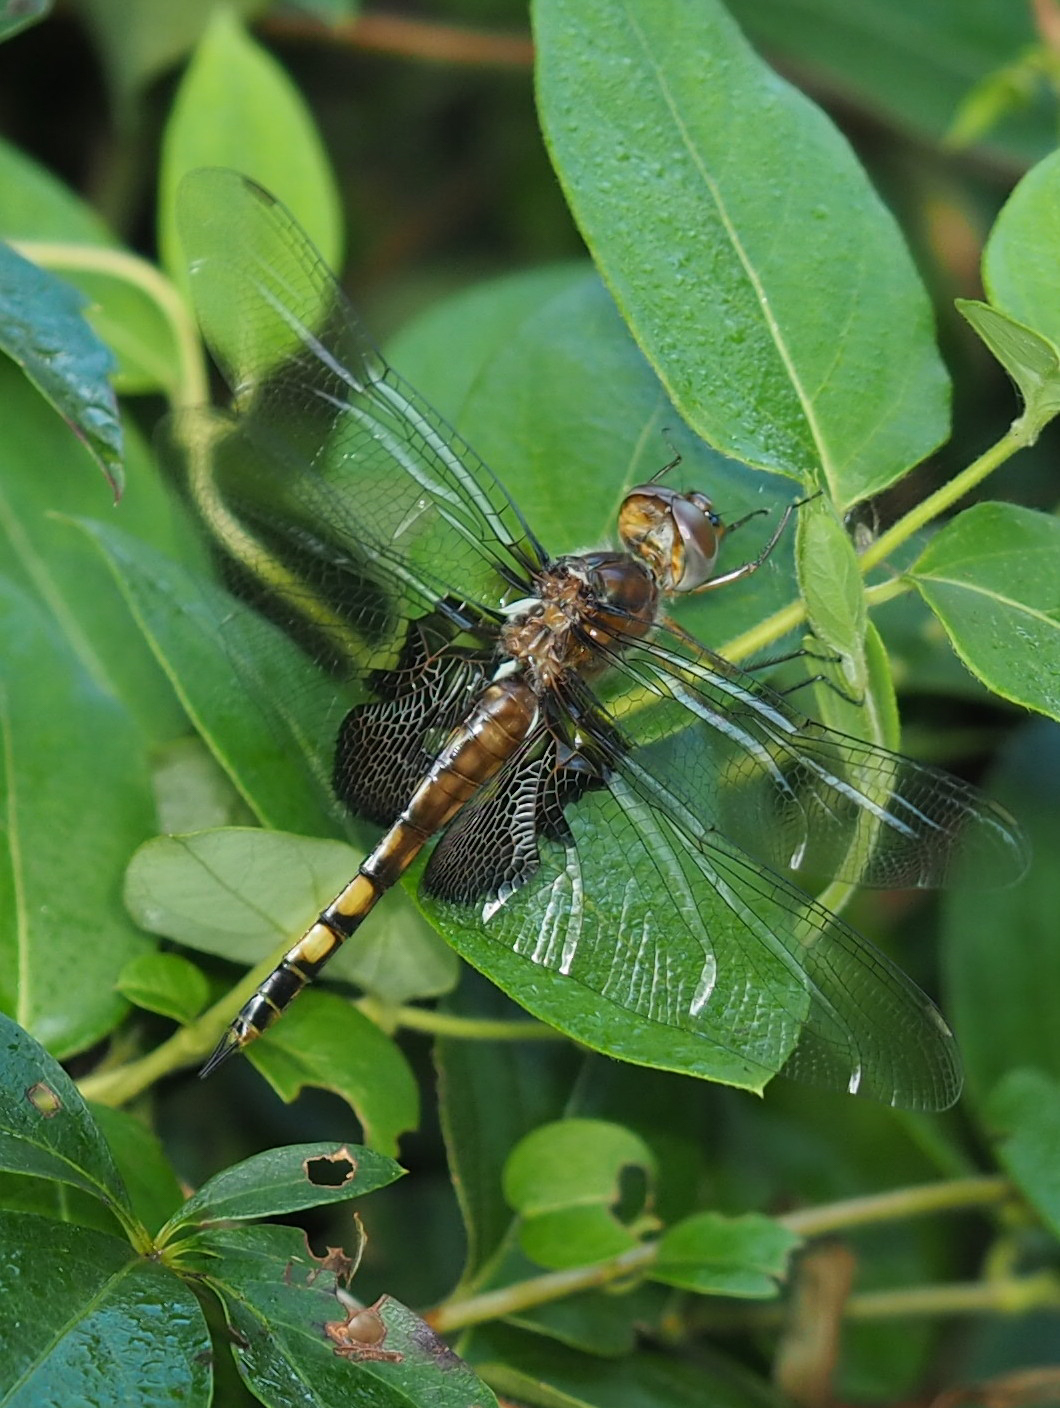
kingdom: Animalia
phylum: Arthropoda
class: Insecta
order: Odonata
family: Libellulidae
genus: Tramea
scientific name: Tramea lacerata
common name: Black saddlebags
